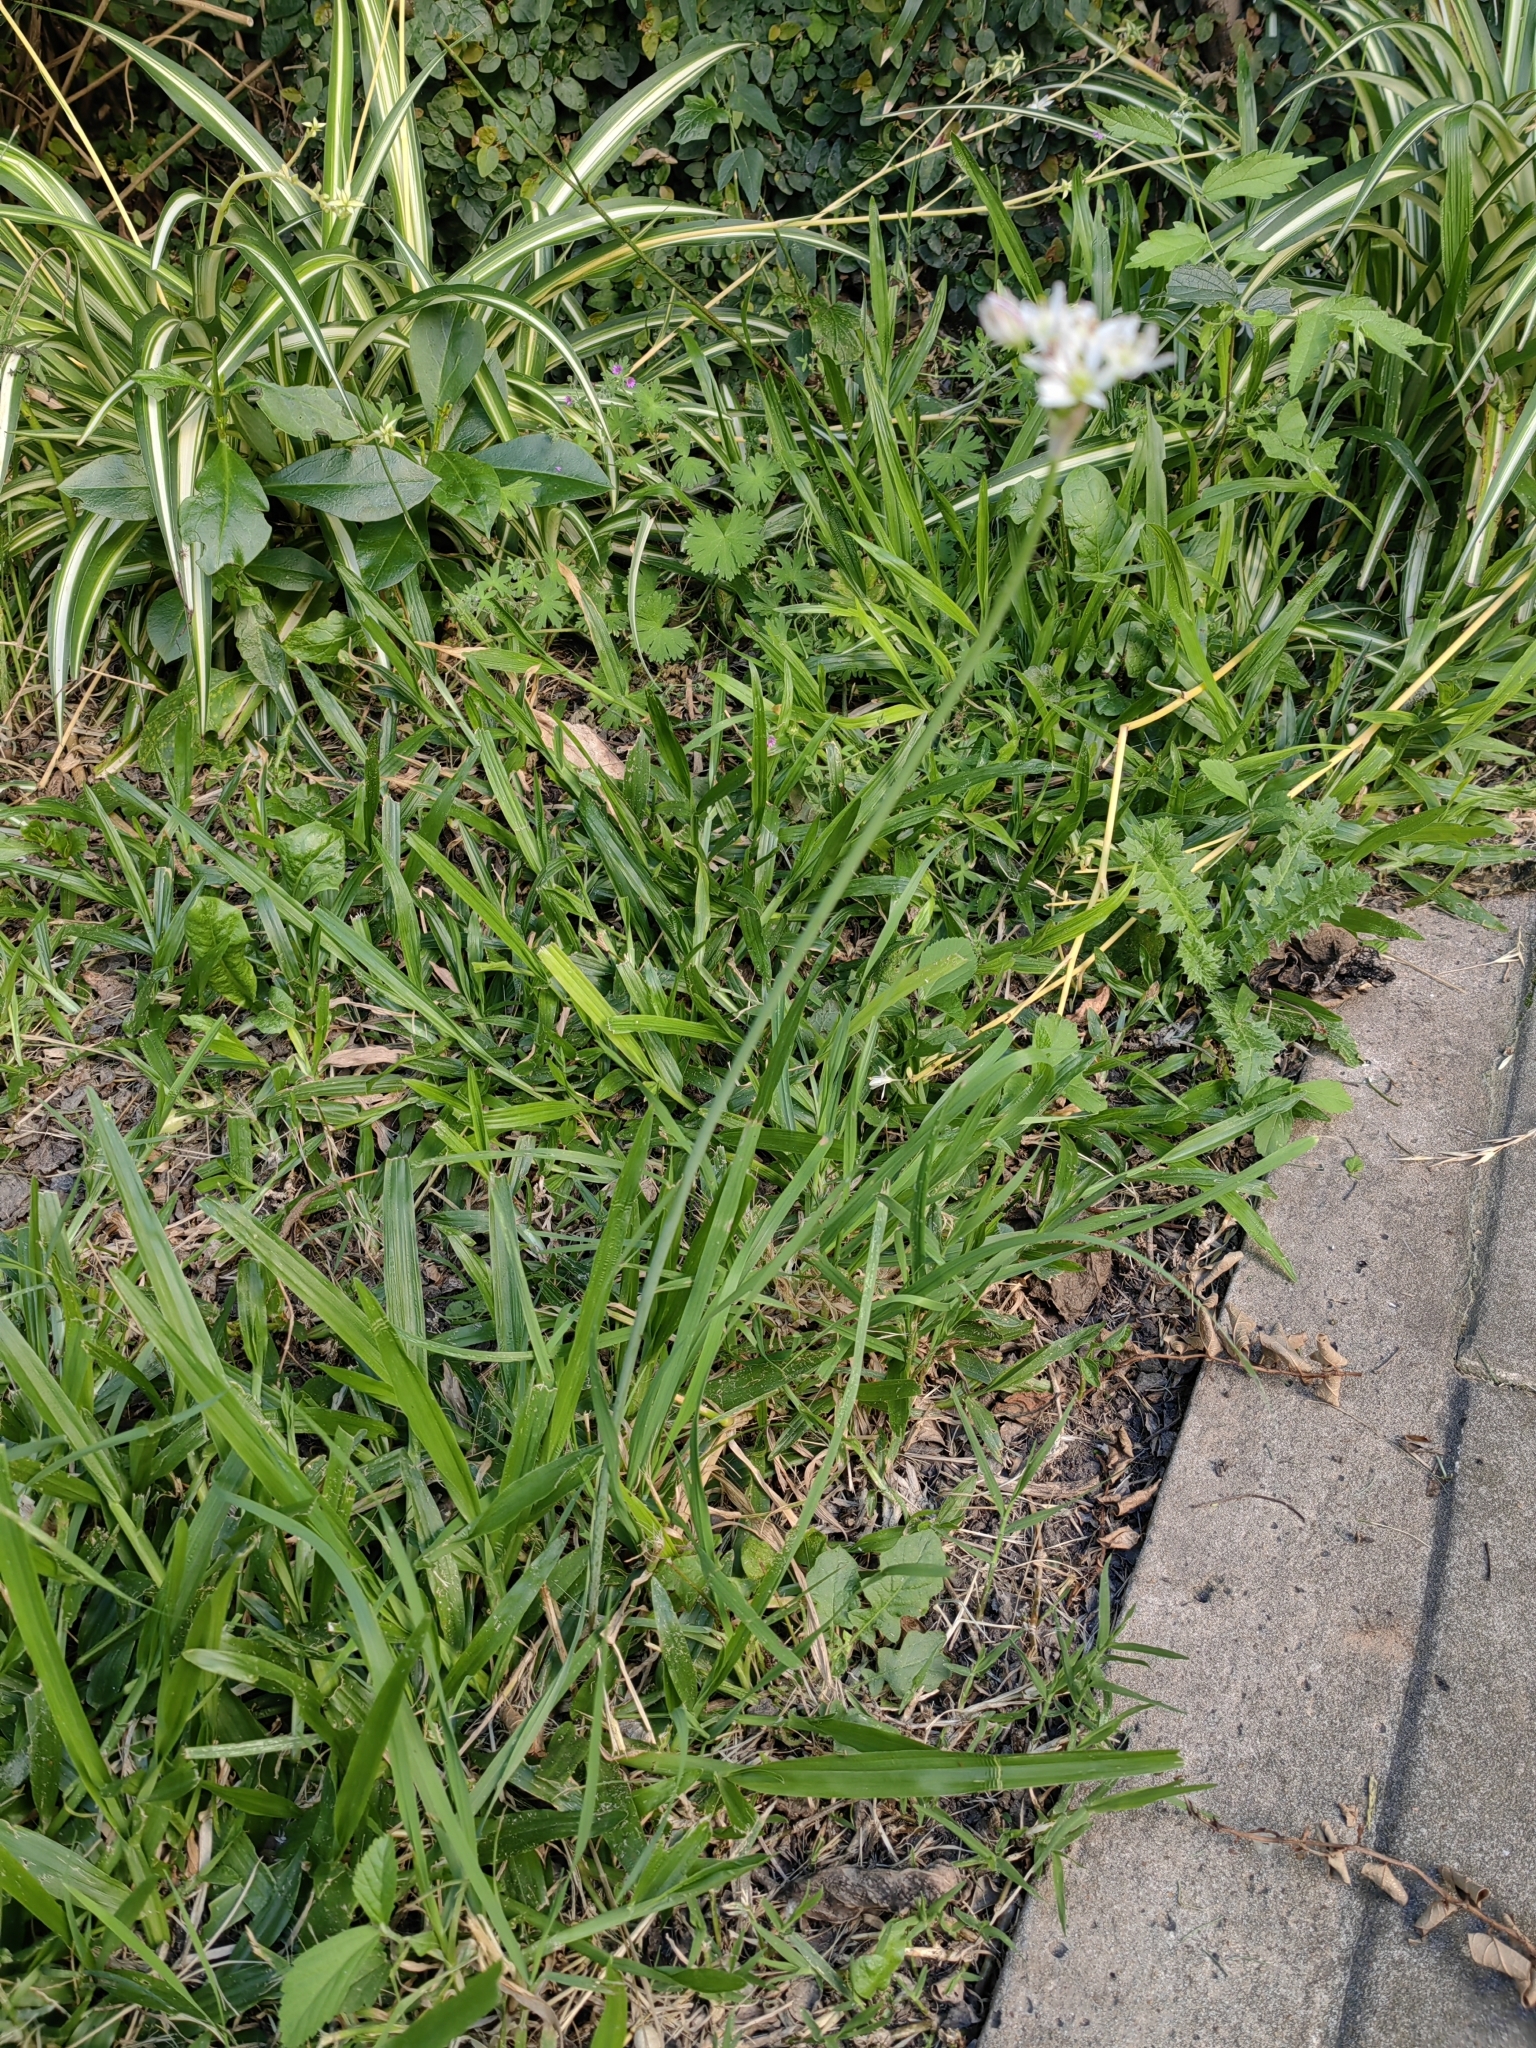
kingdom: Plantae
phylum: Tracheophyta
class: Liliopsida
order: Asparagales
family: Amaryllidaceae
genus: Nothoscordum
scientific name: Nothoscordum gracile
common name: Slender false garlic
